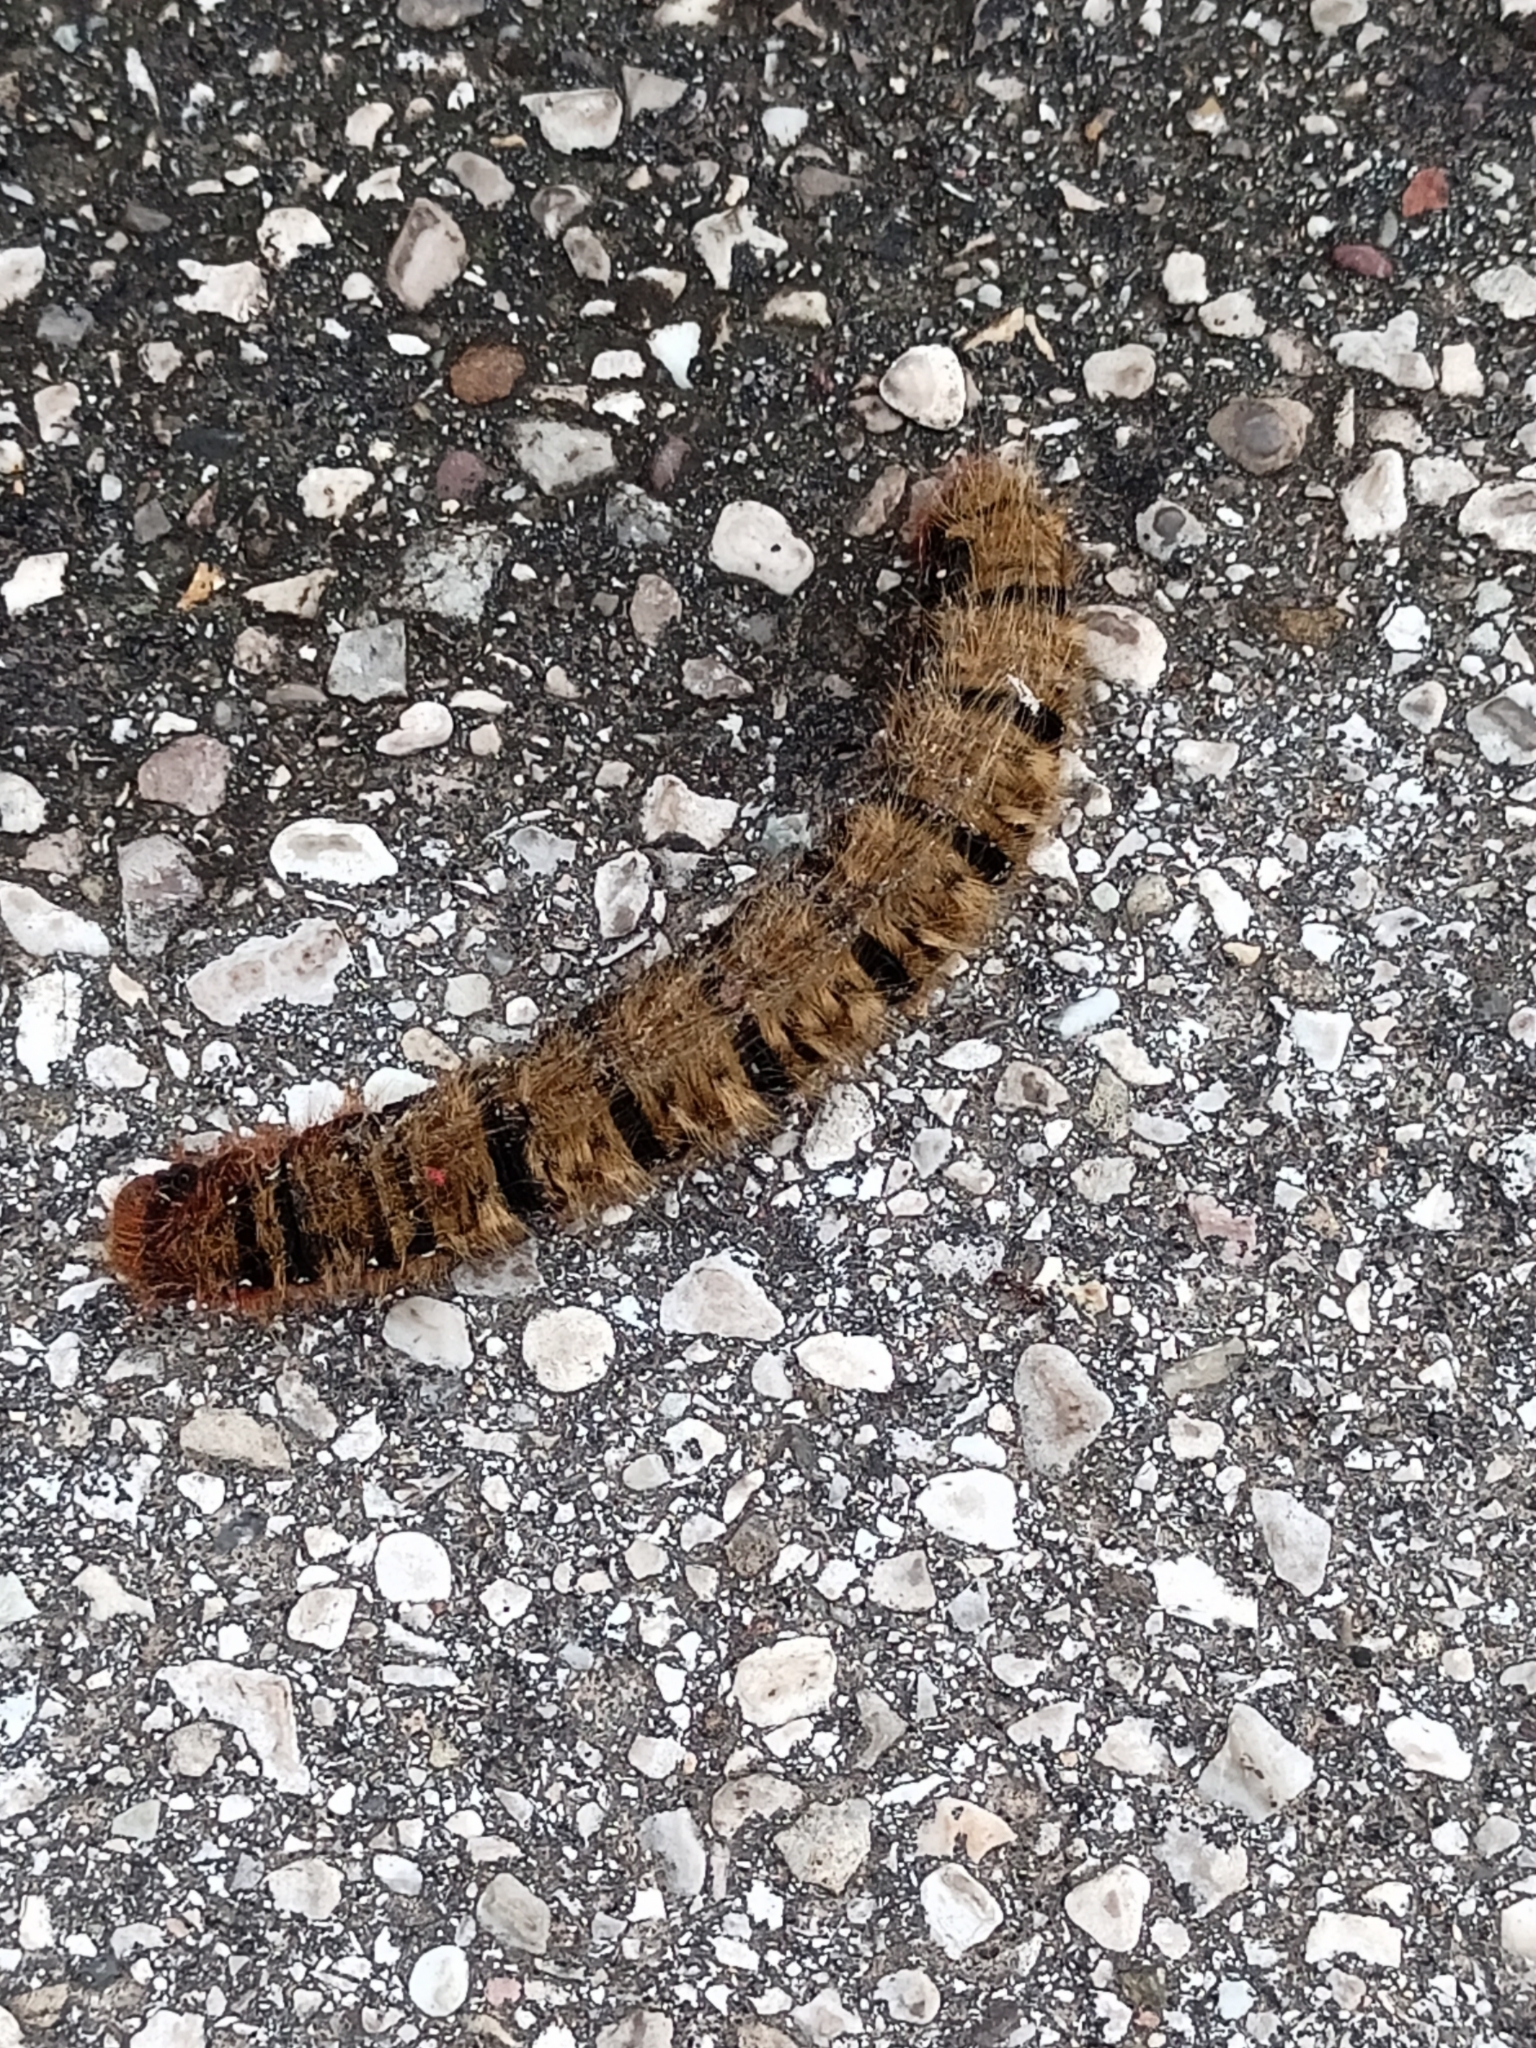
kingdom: Animalia
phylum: Arthropoda
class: Insecta
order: Lepidoptera
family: Lasiocampidae
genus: Lasiocampa
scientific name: Lasiocampa quercus
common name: Oak eggar
